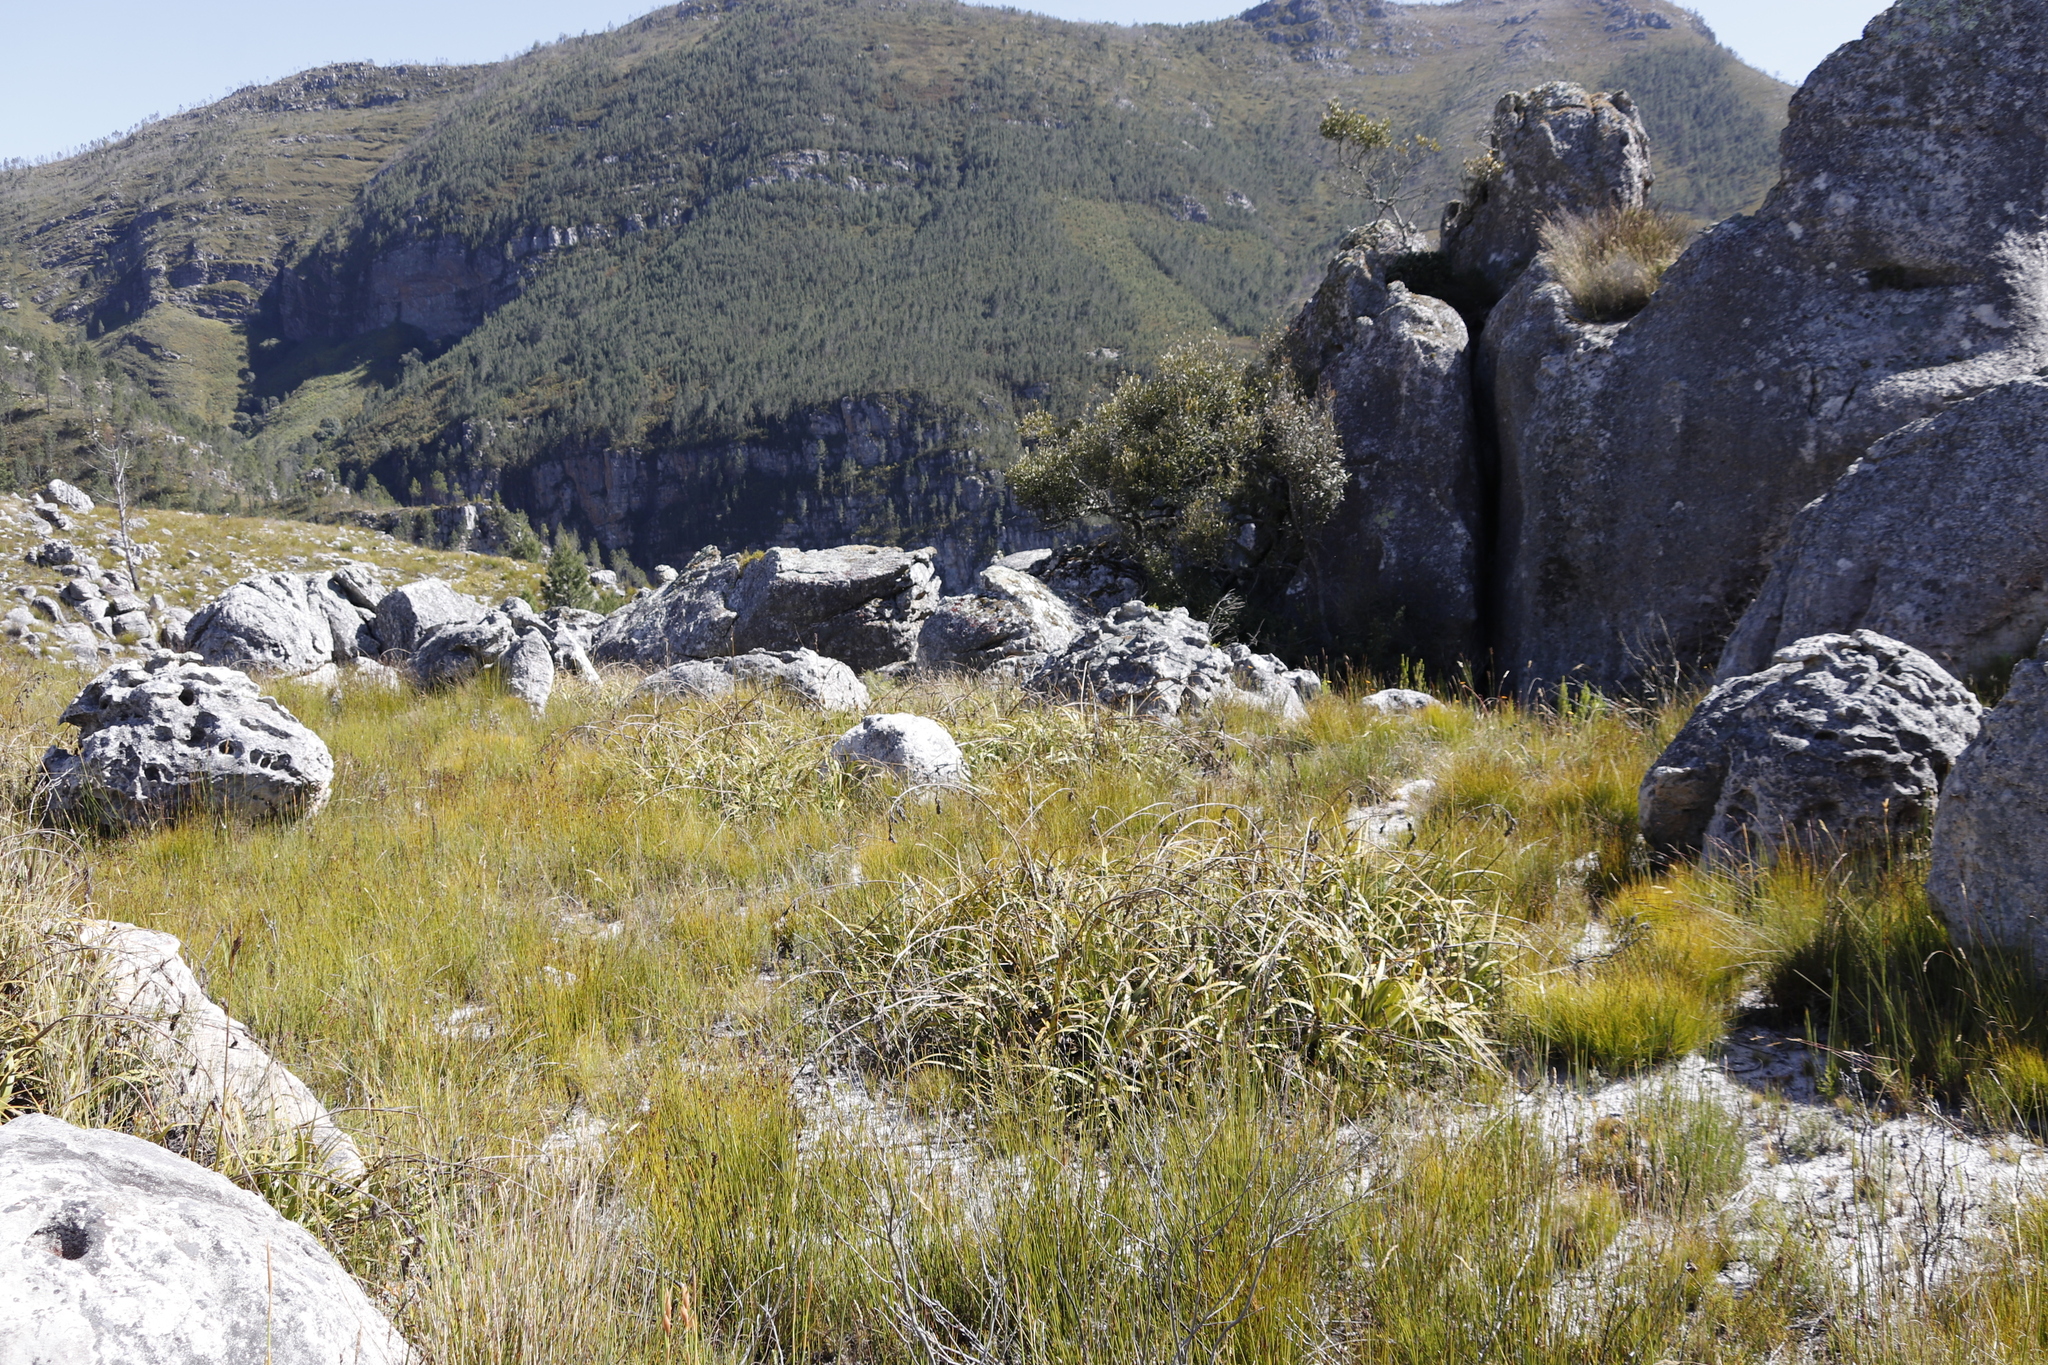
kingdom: Plantae
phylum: Tracheophyta
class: Liliopsida
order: Poales
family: Cyperaceae
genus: Tetraria
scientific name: Tetraria thermalis
